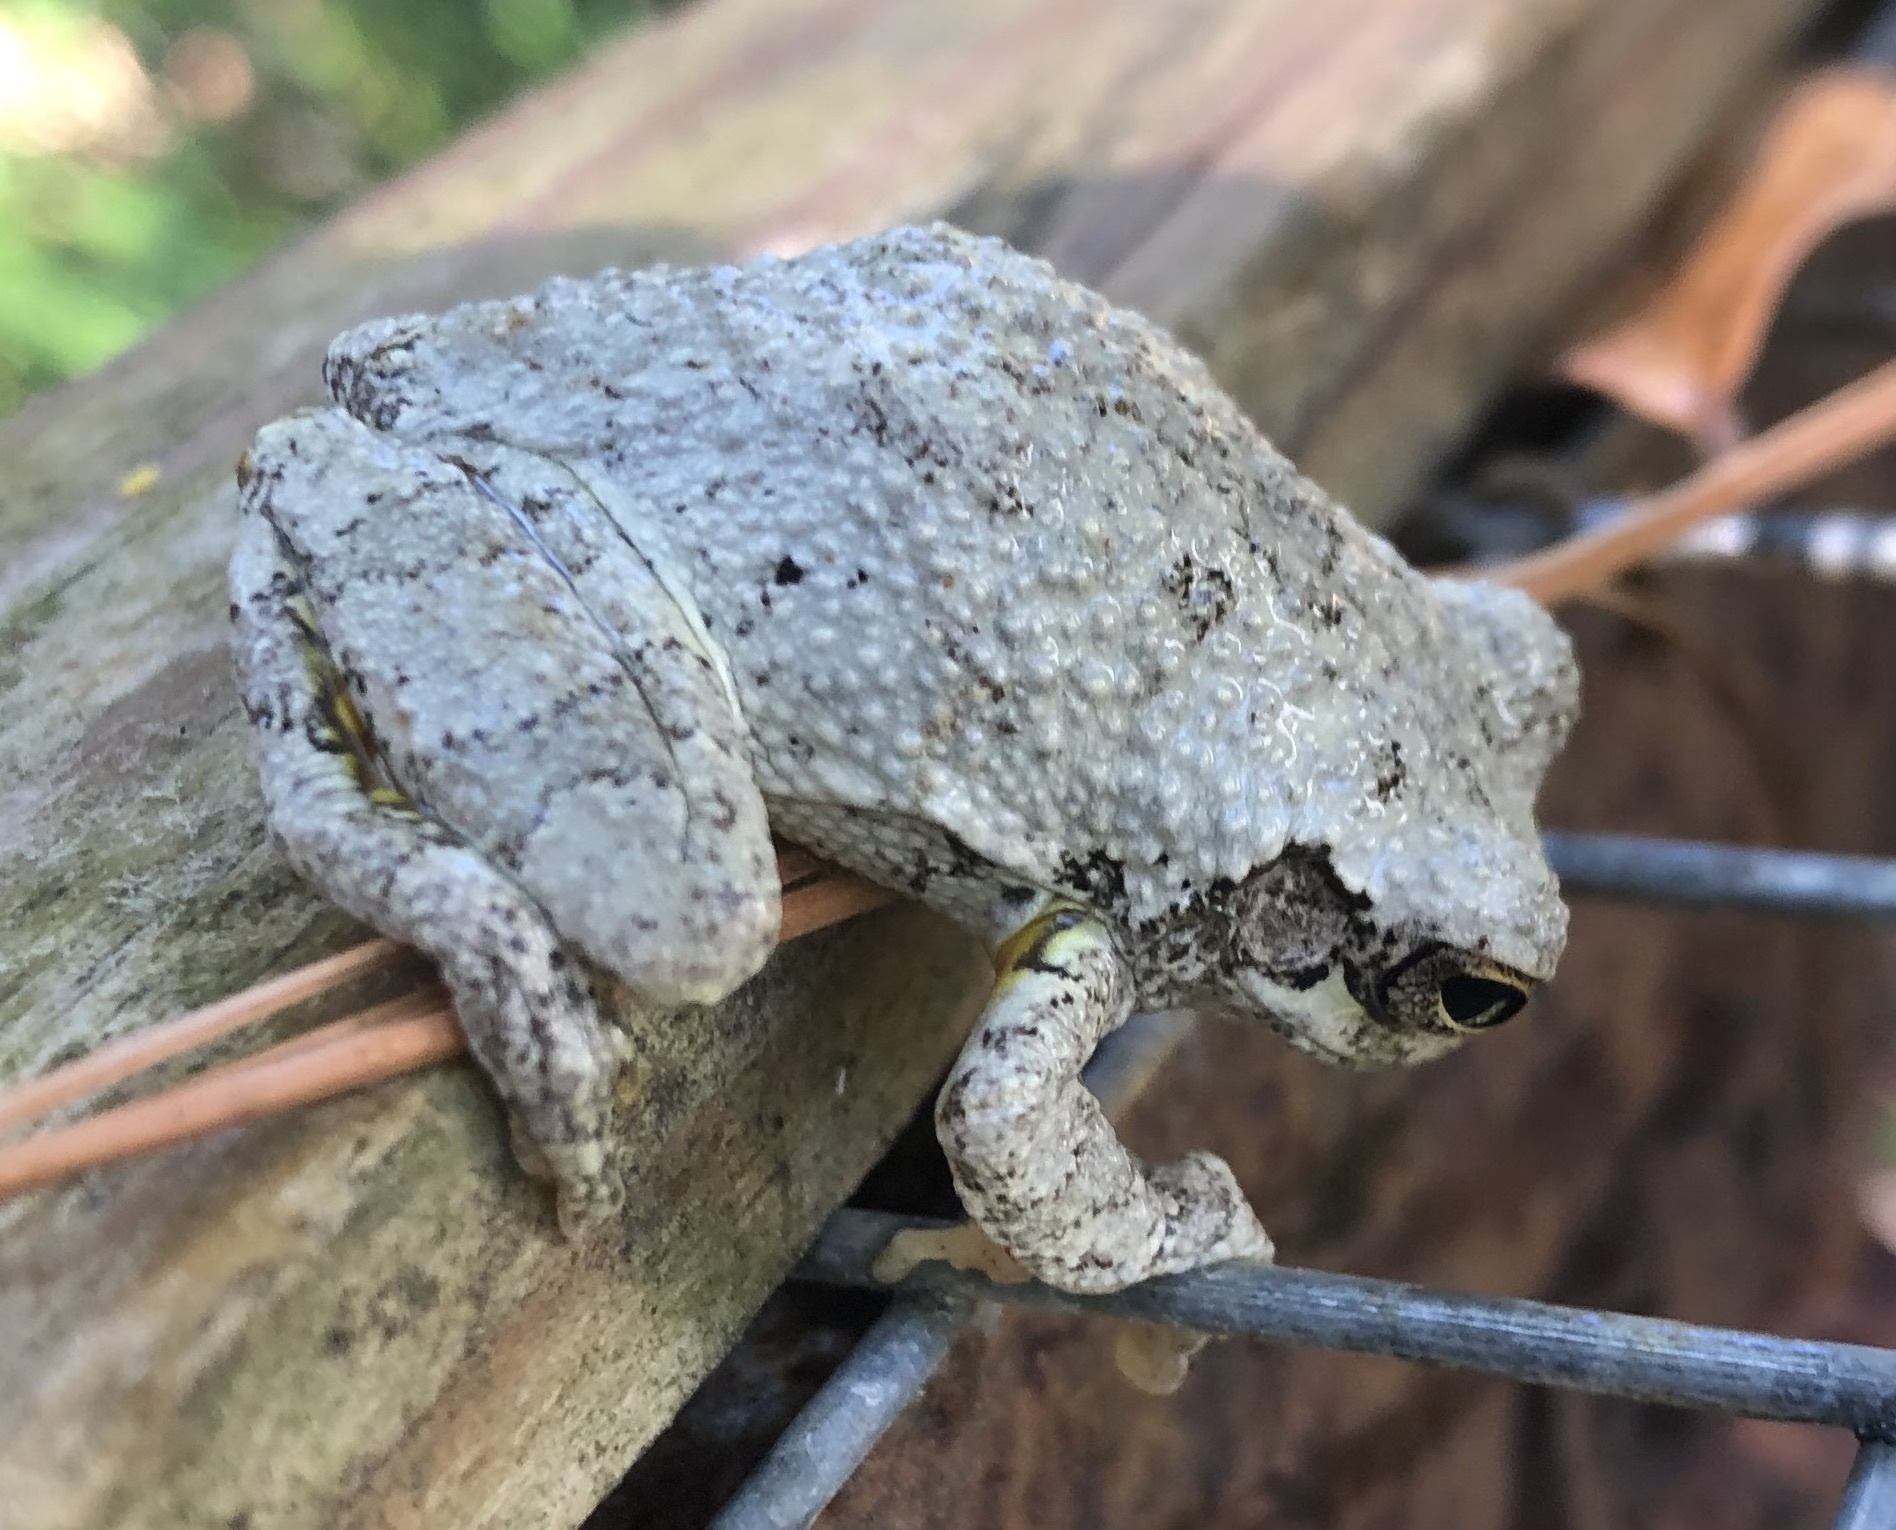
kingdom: Animalia
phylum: Chordata
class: Amphibia
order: Anura
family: Hylidae
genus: Dryophytes
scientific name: Dryophytes chrysoscelis
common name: Cope's gray treefrog
